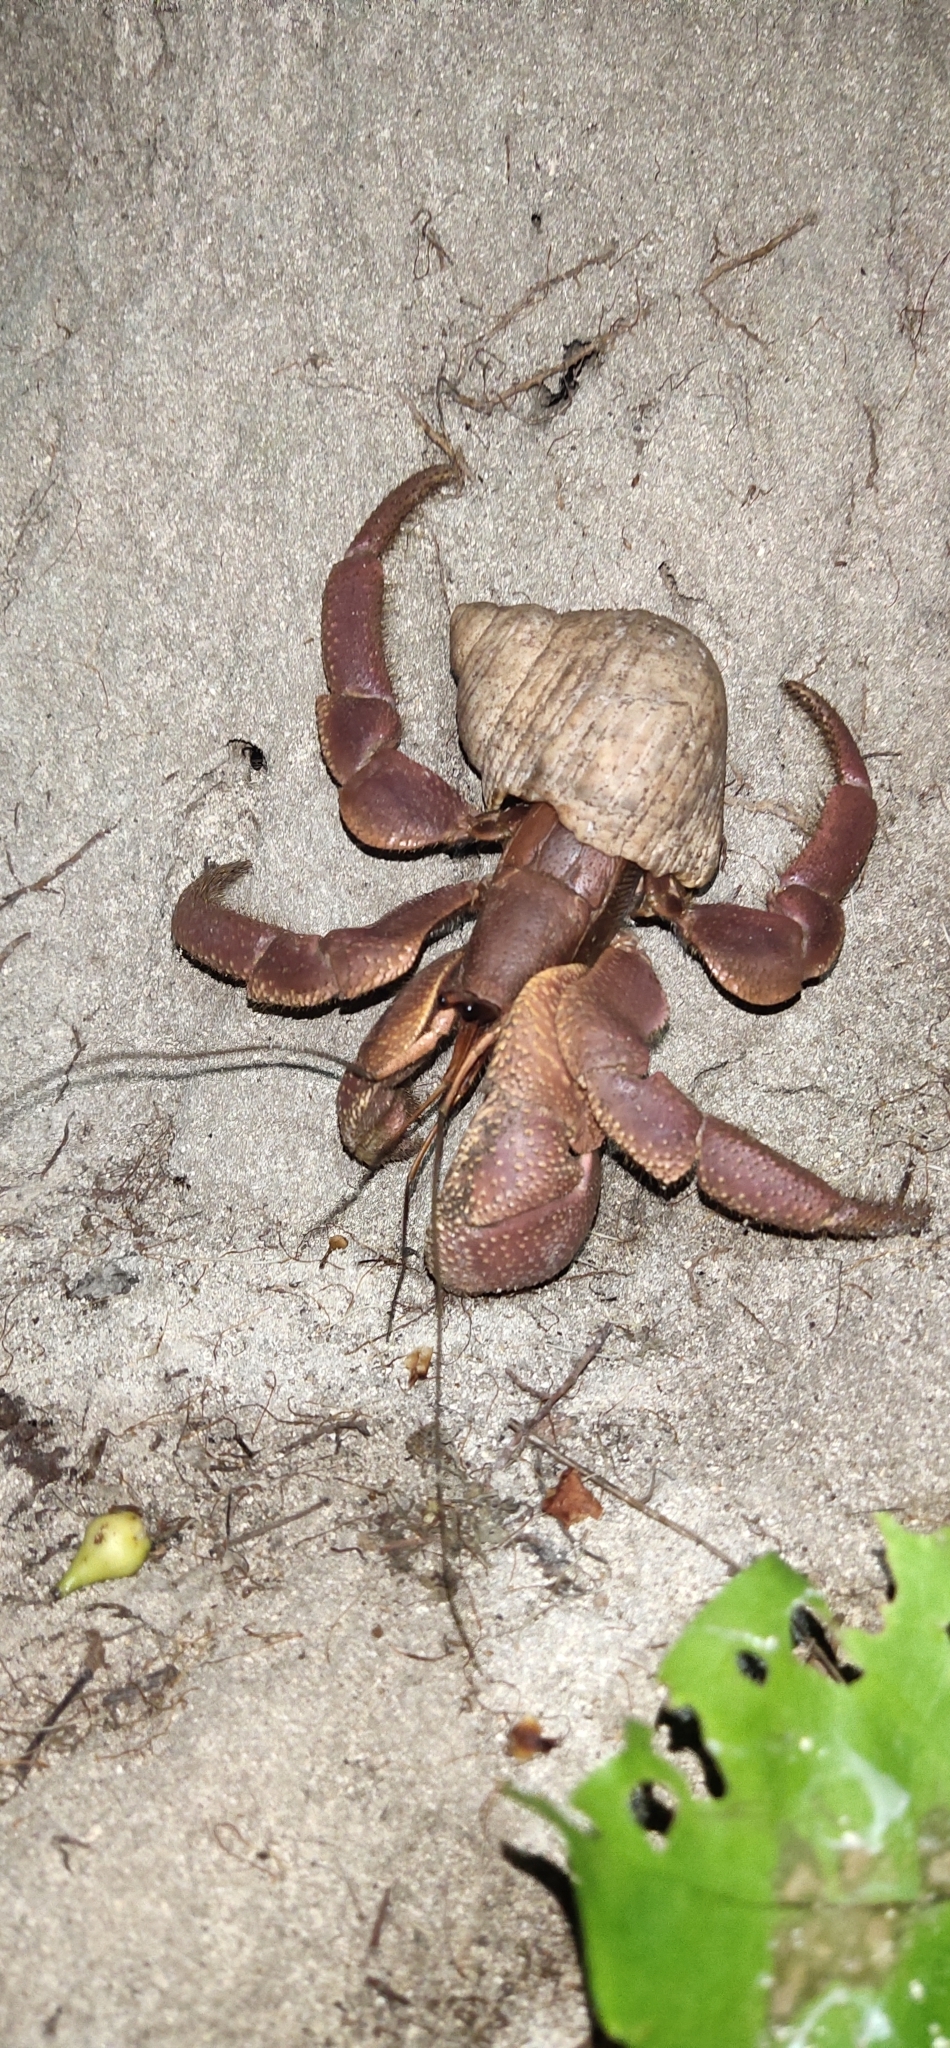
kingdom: Animalia
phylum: Arthropoda
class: Malacostraca
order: Decapoda
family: Coenobitidae
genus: Coenobita
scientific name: Coenobita brevimanus
